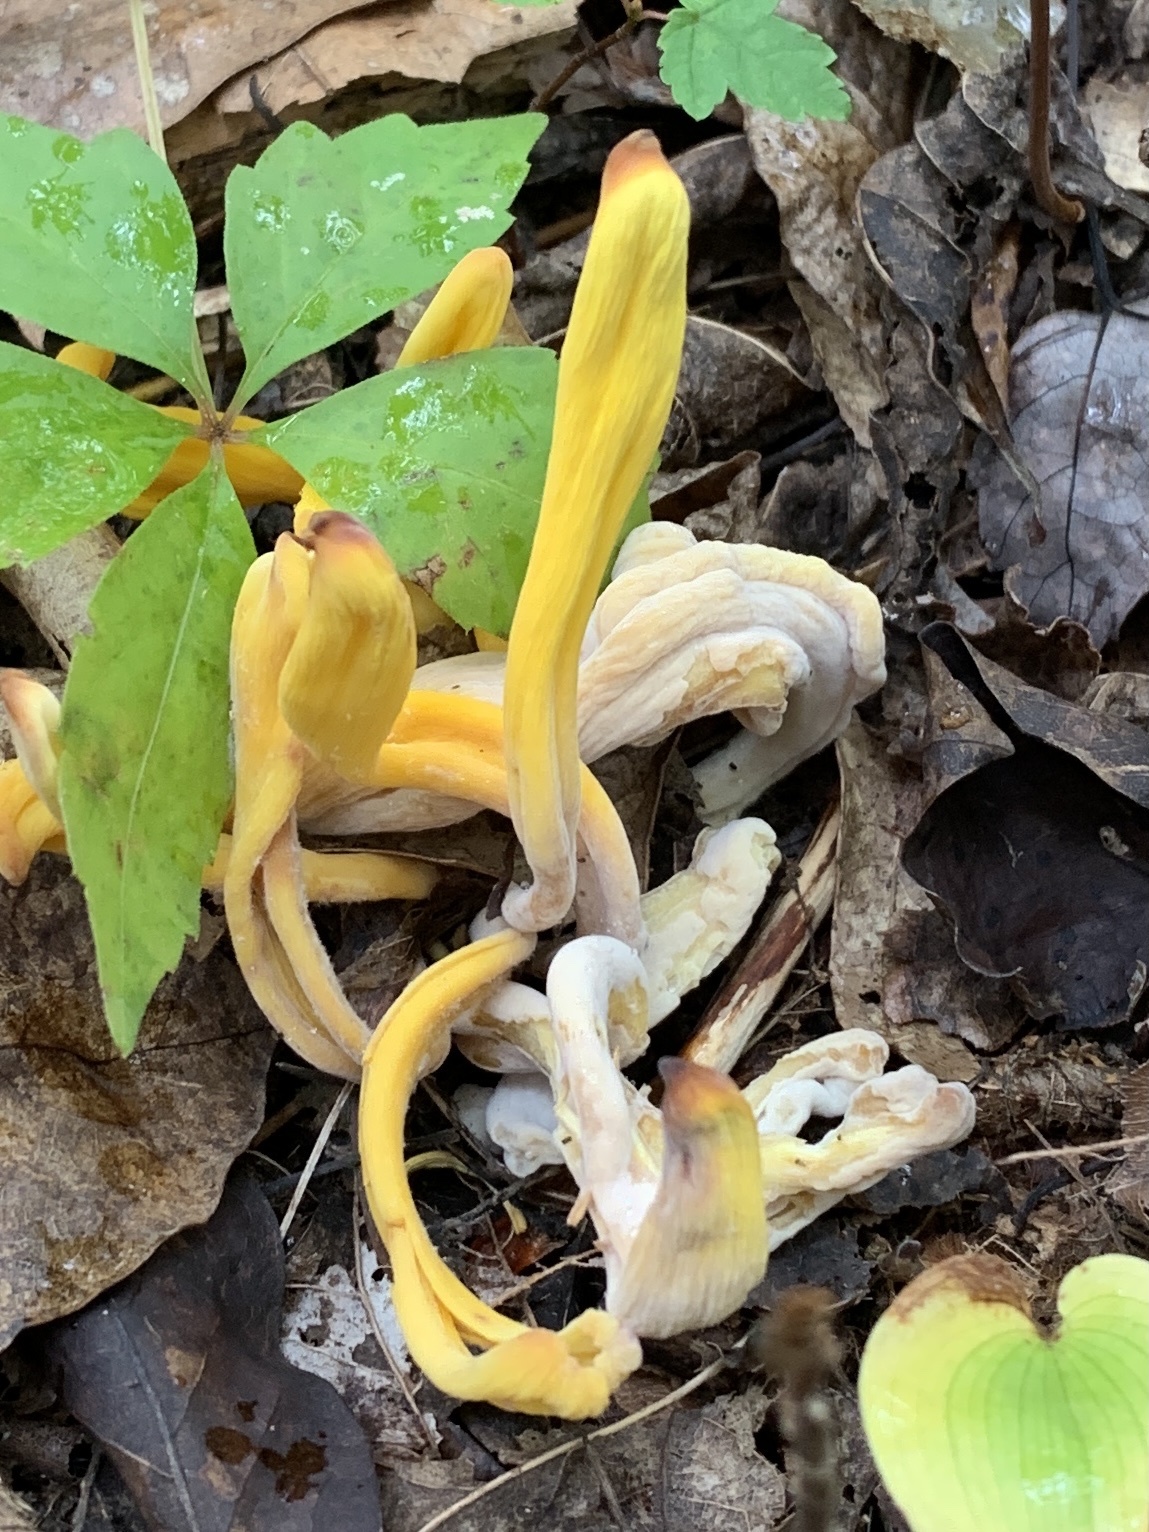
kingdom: Fungi
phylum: Basidiomycota
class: Agaricomycetes
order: Agaricales
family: Clavariaceae
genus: Clavulinopsis
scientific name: Clavulinopsis fusiformis
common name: Golden spindles
